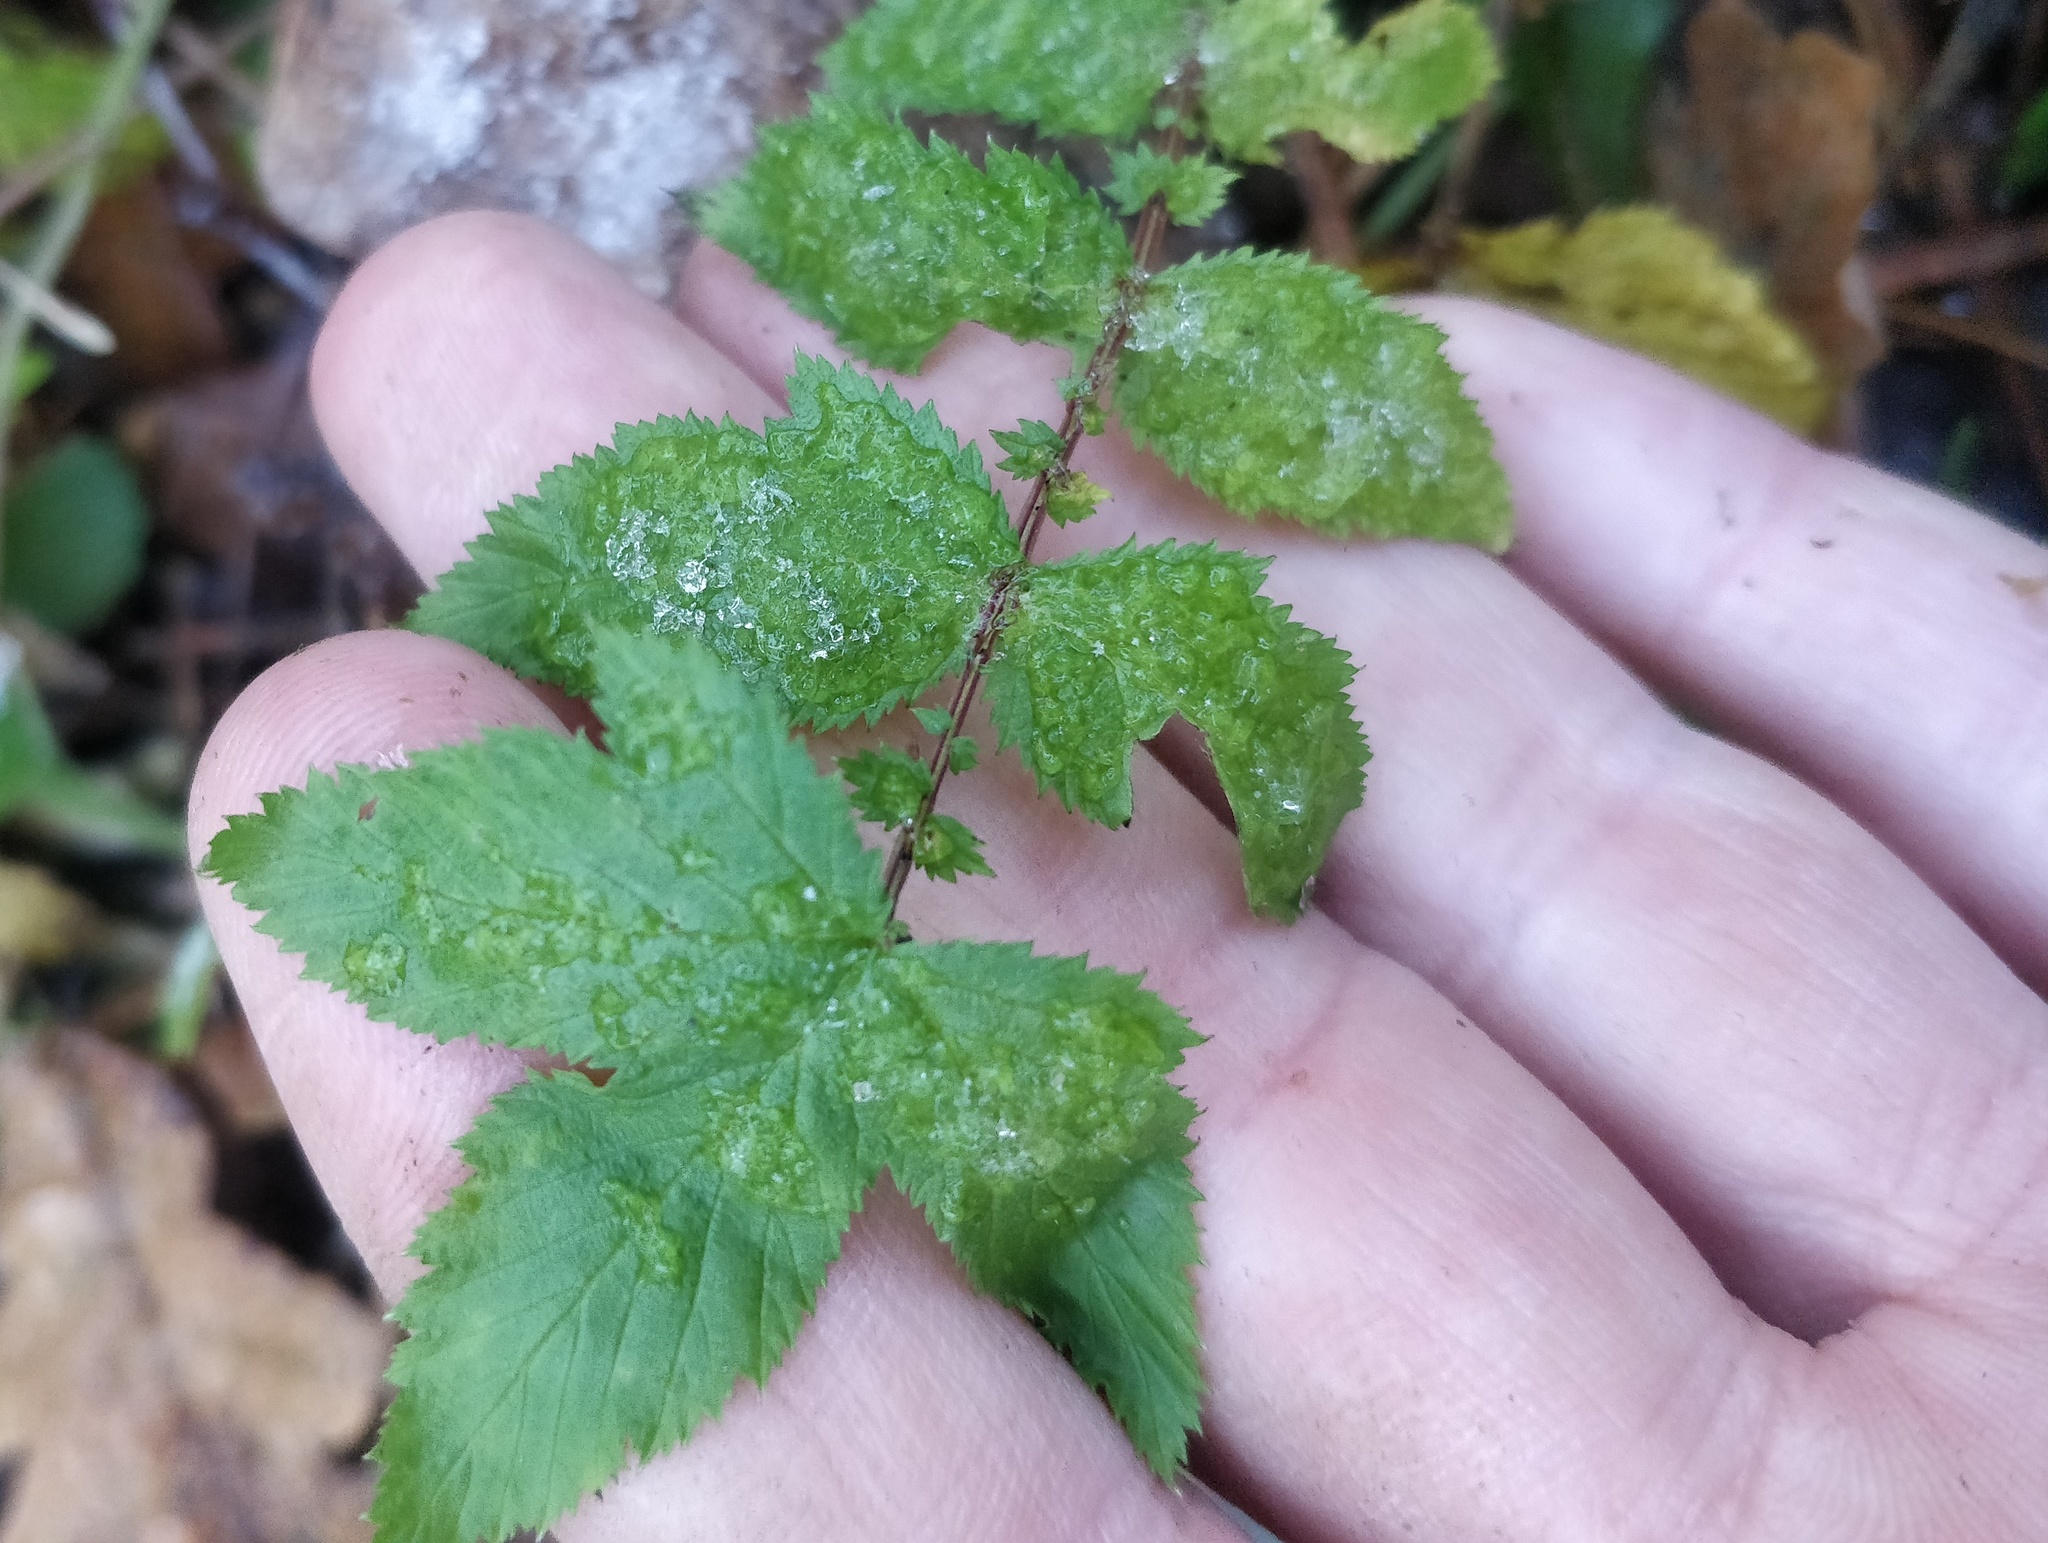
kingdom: Plantae
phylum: Tracheophyta
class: Magnoliopsida
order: Rosales
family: Rosaceae
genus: Filipendula
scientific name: Filipendula ulmaria
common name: Meadowsweet
